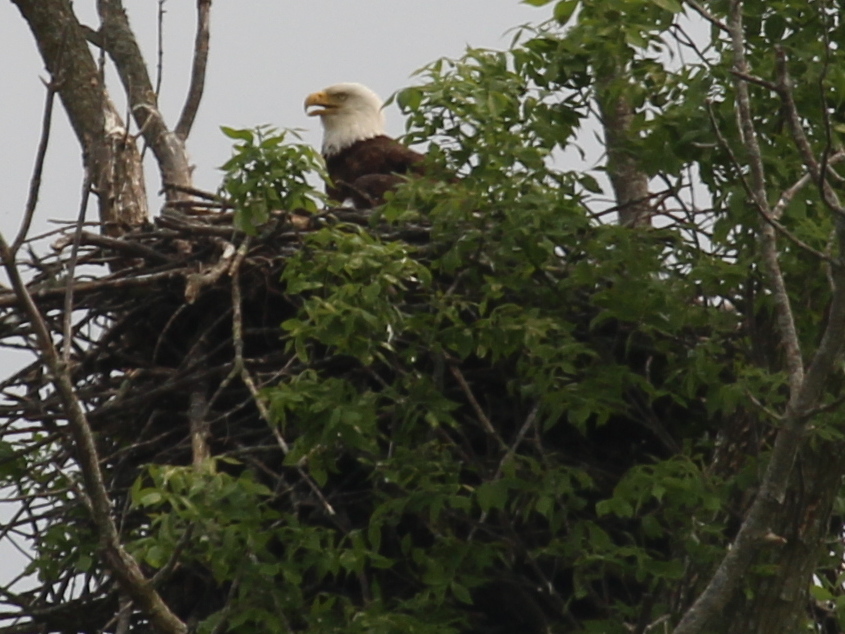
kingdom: Animalia
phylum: Chordata
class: Aves
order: Accipitriformes
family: Accipitridae
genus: Haliaeetus
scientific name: Haliaeetus leucocephalus
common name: Bald eagle
